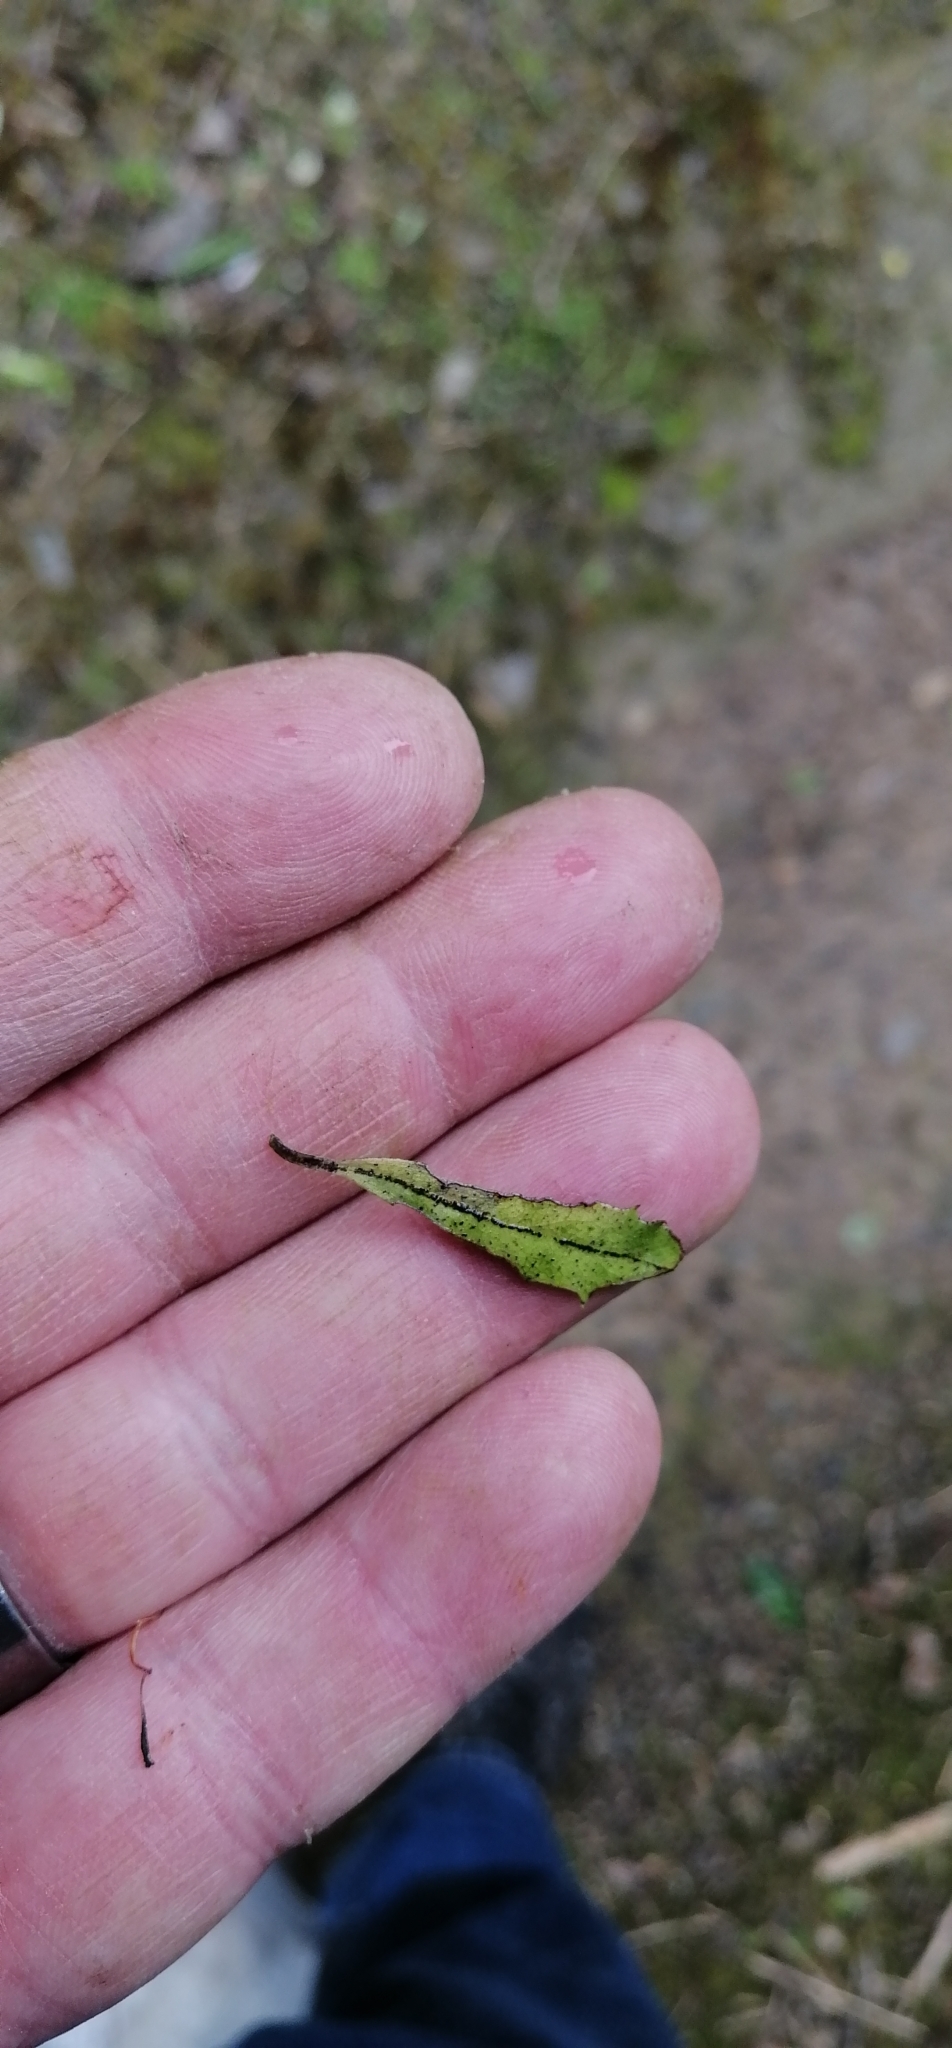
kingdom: Plantae
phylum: Tracheophyta
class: Magnoliopsida
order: Malvales
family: Malvaceae
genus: Hoheria
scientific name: Hoheria angustifolia
